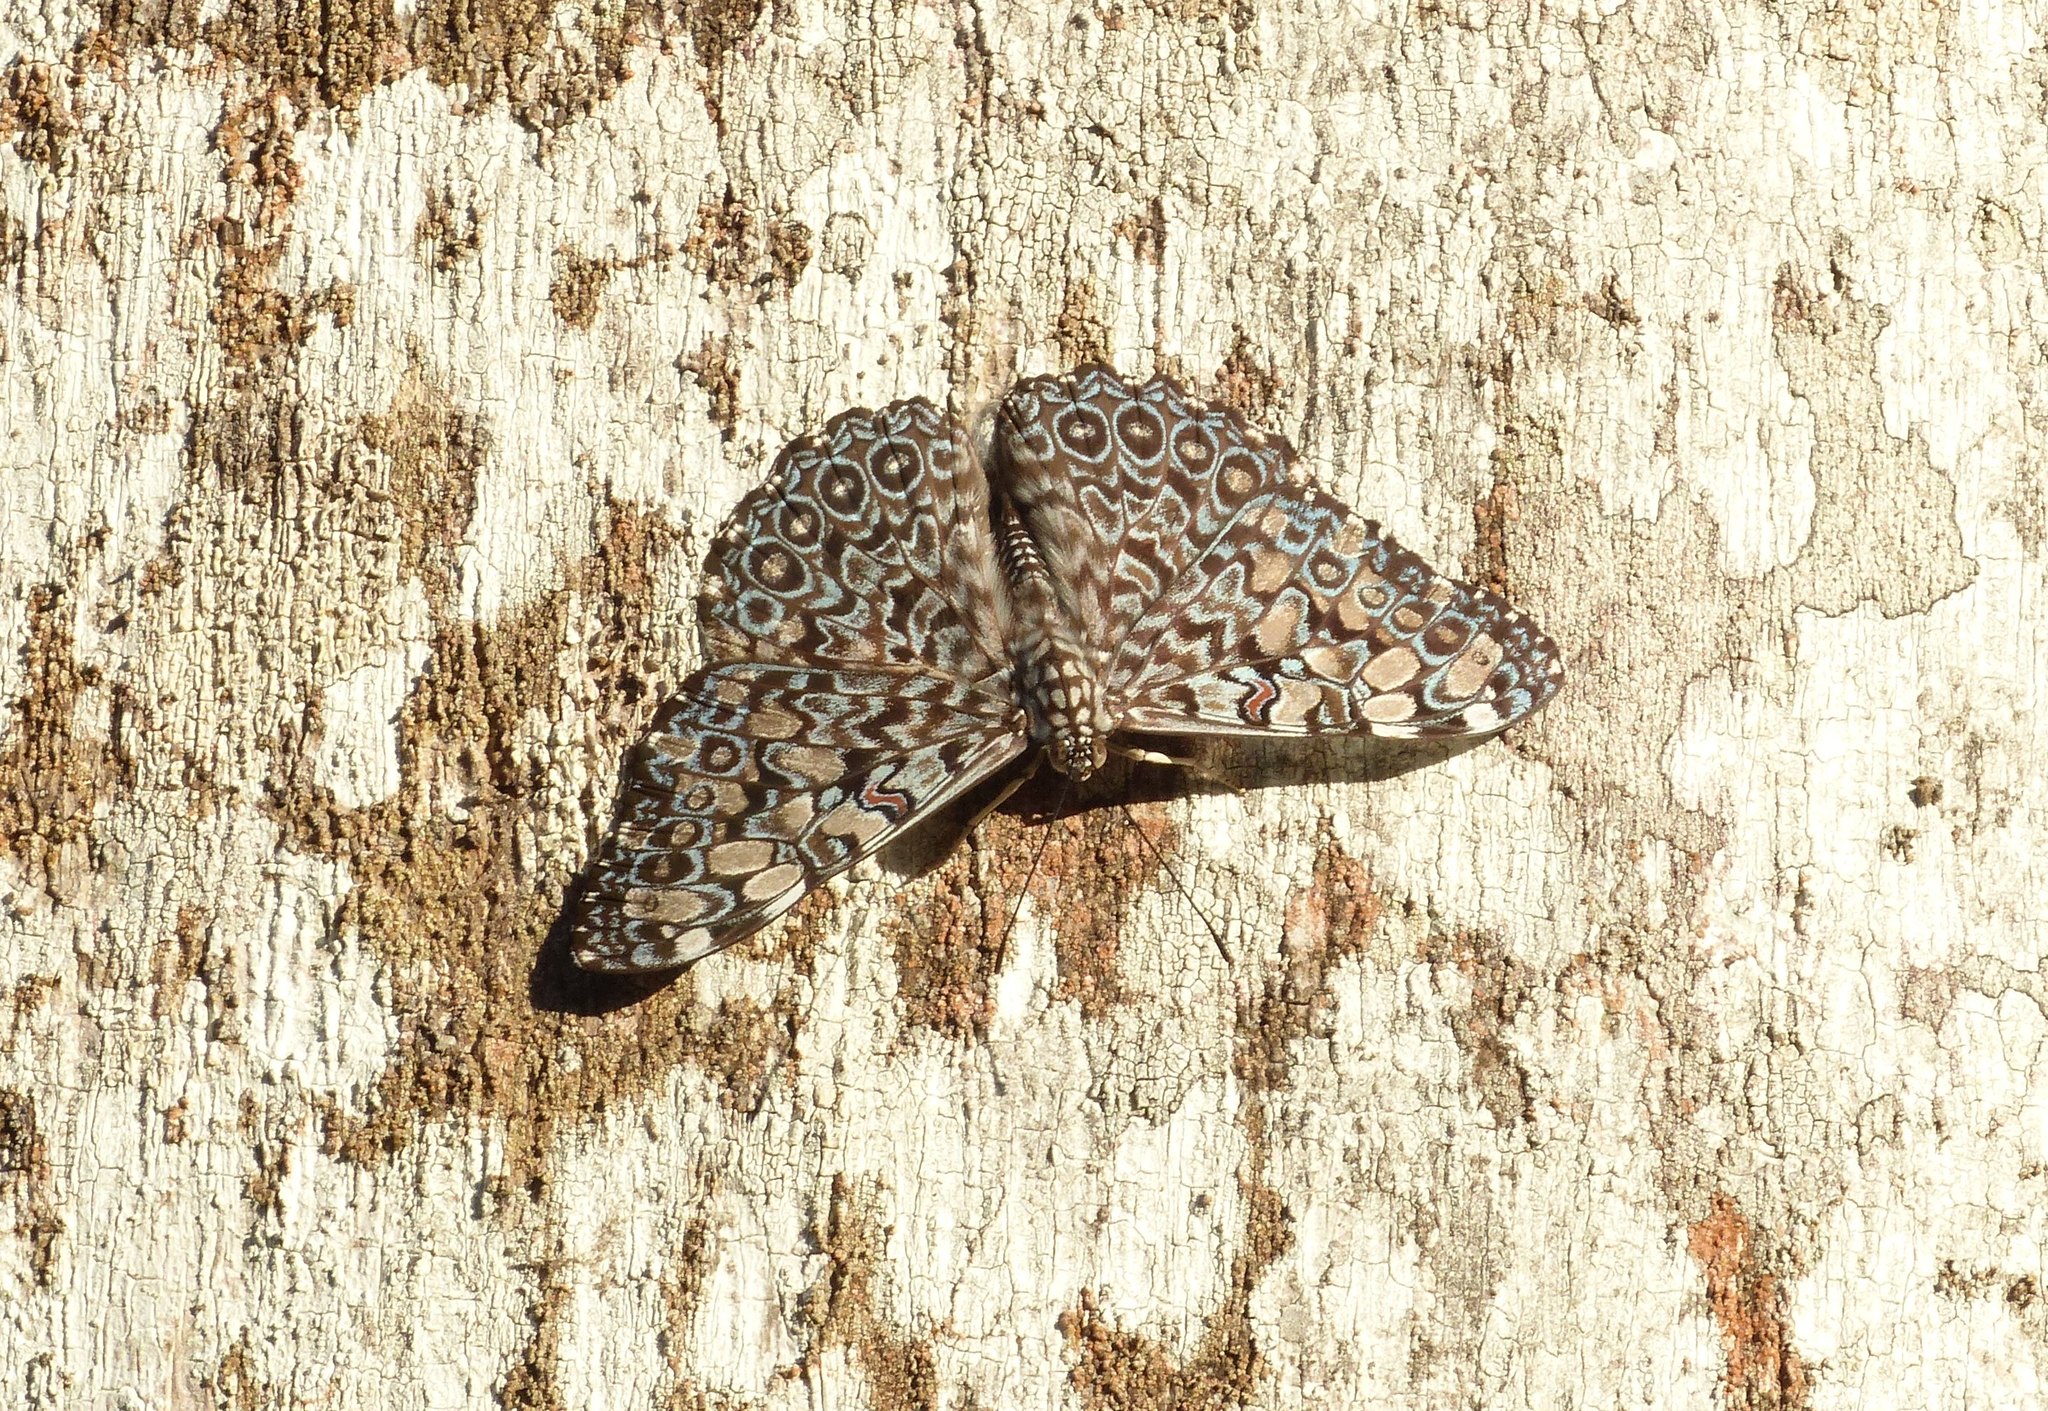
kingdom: Animalia
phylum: Arthropoda
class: Insecta
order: Lepidoptera
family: Nymphalidae
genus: Hamadryas
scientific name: Hamadryas feronia
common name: Variable cracker
